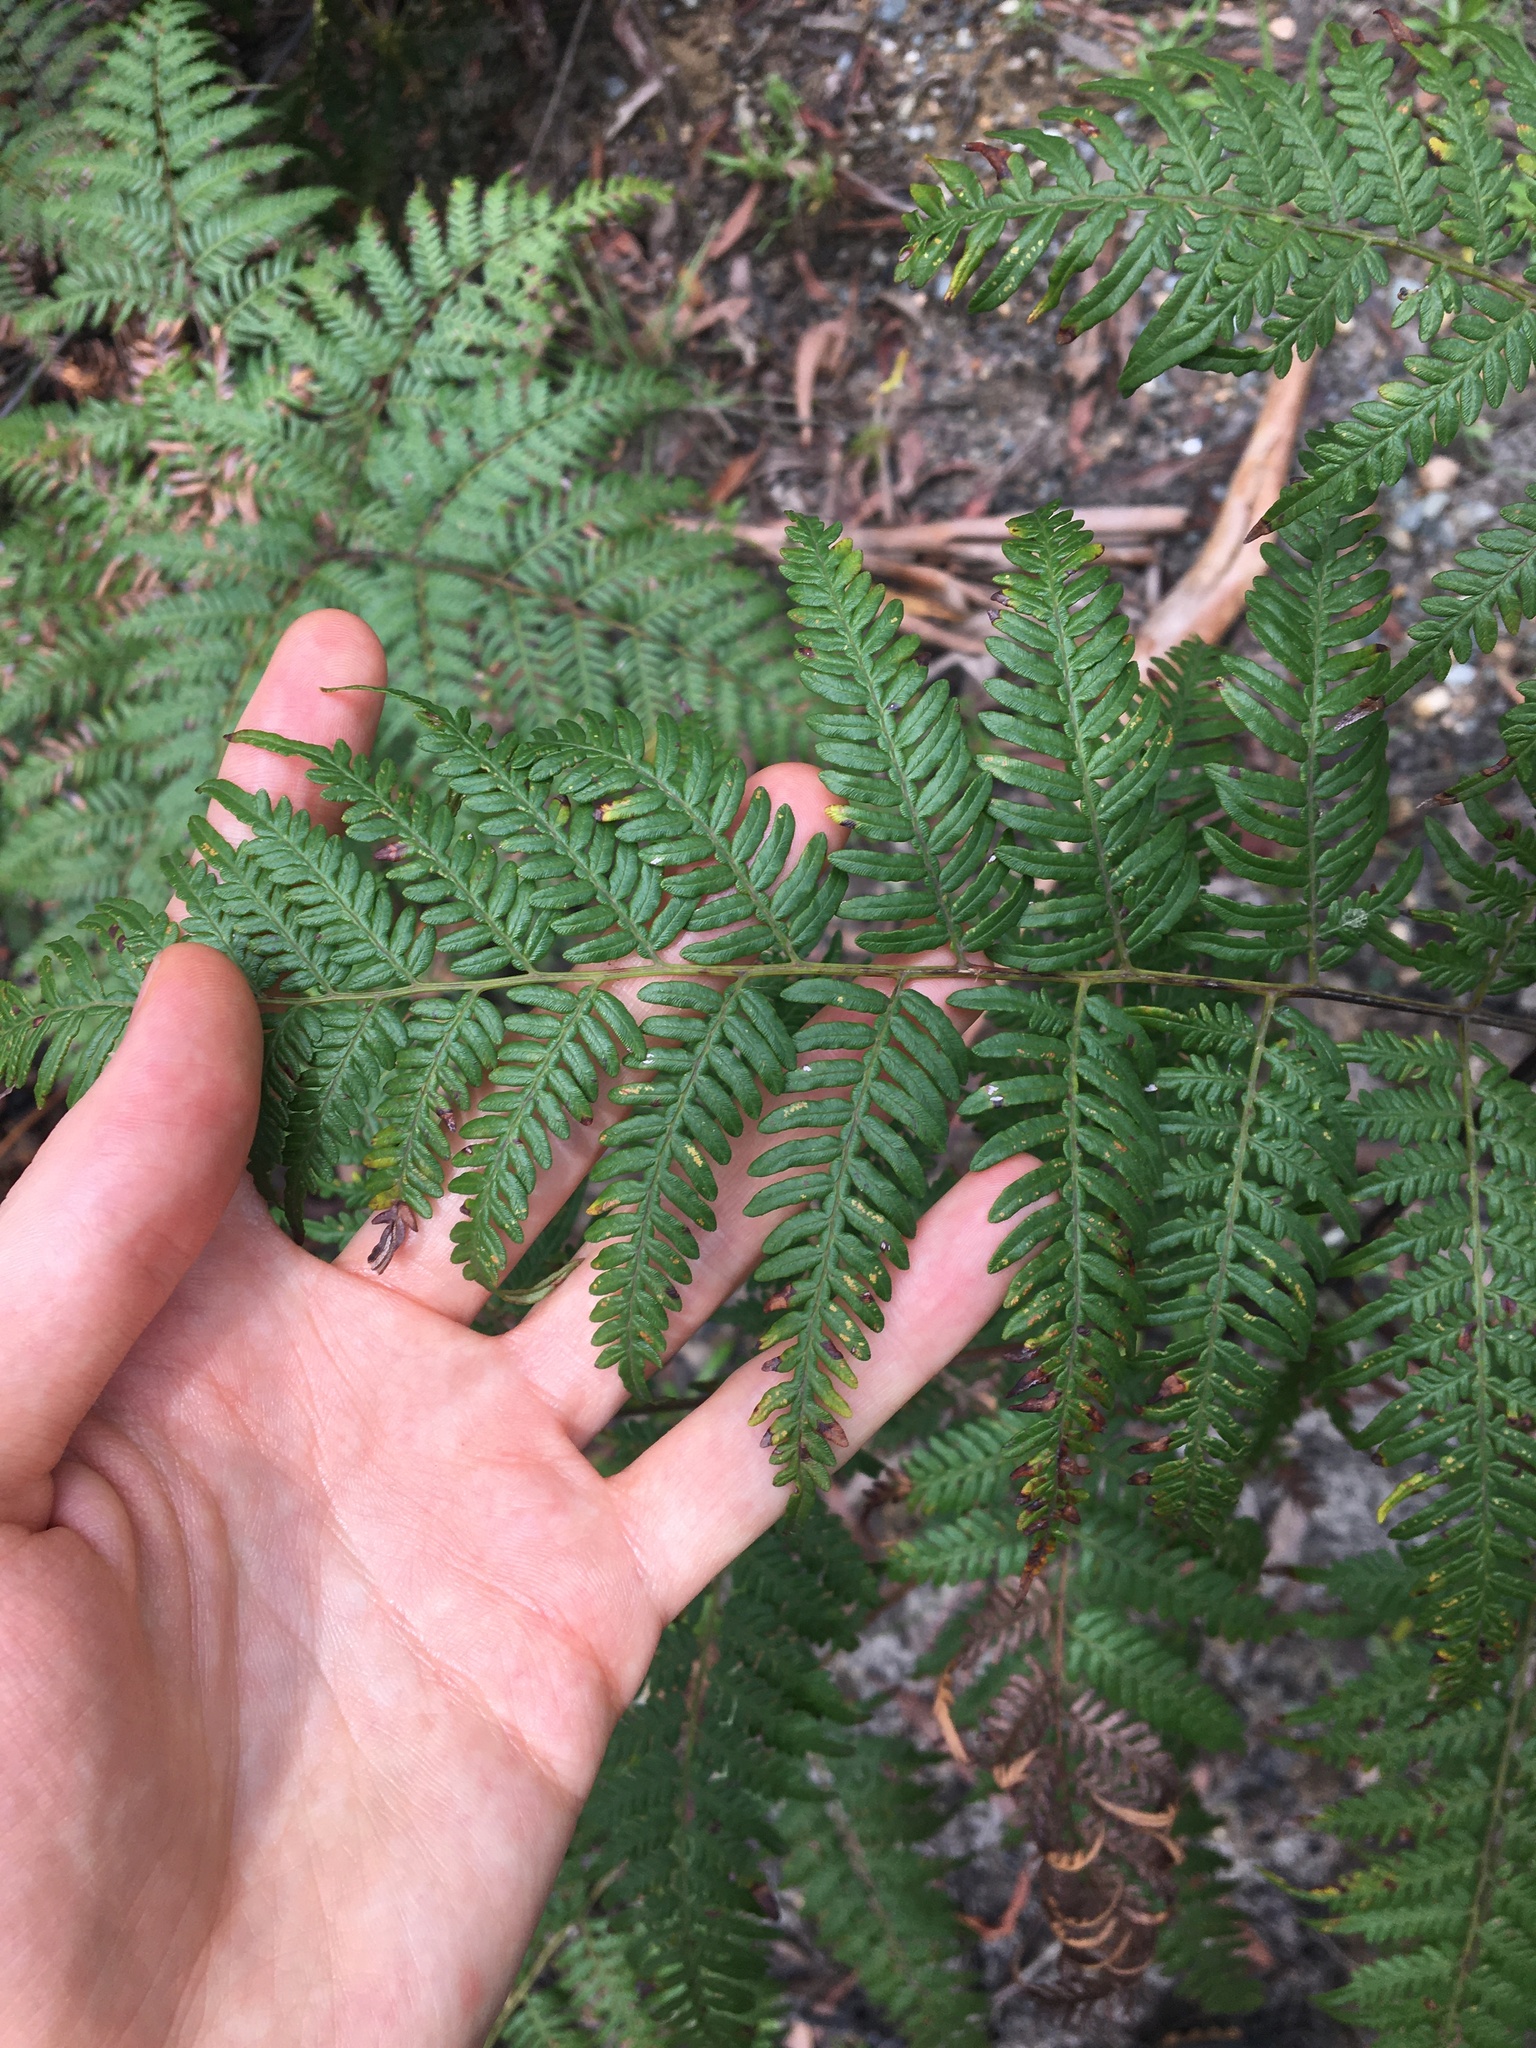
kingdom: Plantae
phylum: Tracheophyta
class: Polypodiopsida
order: Polypodiales
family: Dennstaedtiaceae
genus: Pteridium
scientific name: Pteridium esculentum
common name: Bracken fern
